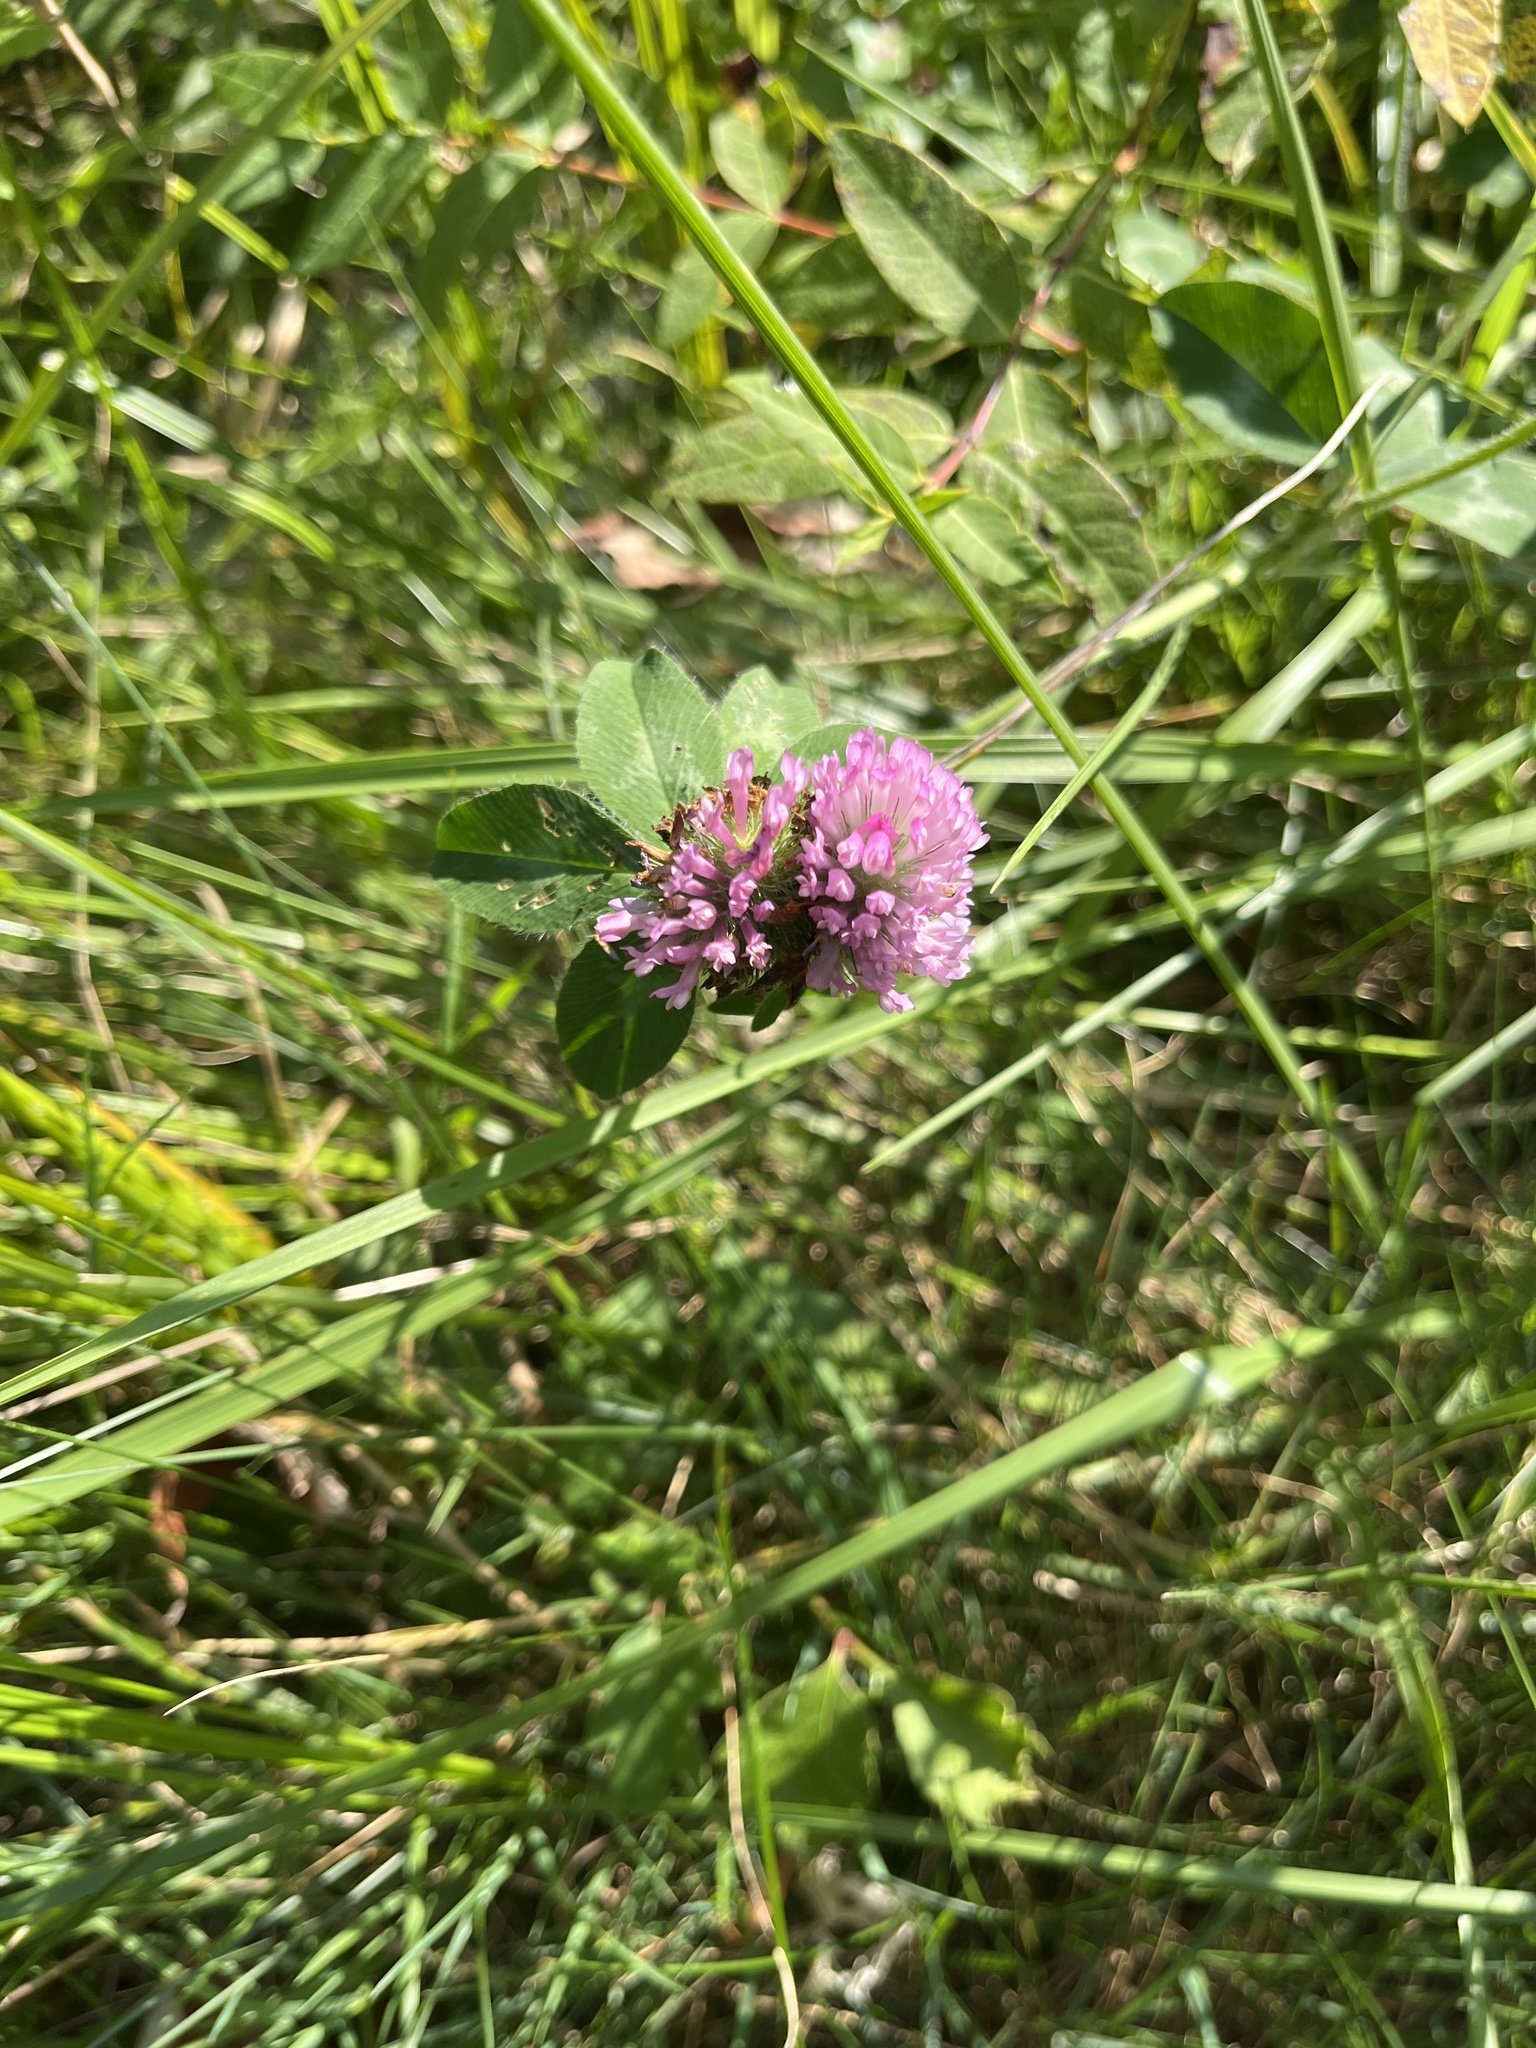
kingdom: Plantae
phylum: Tracheophyta
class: Magnoliopsida
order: Fabales
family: Fabaceae
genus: Trifolium
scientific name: Trifolium pratense
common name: Red clover
